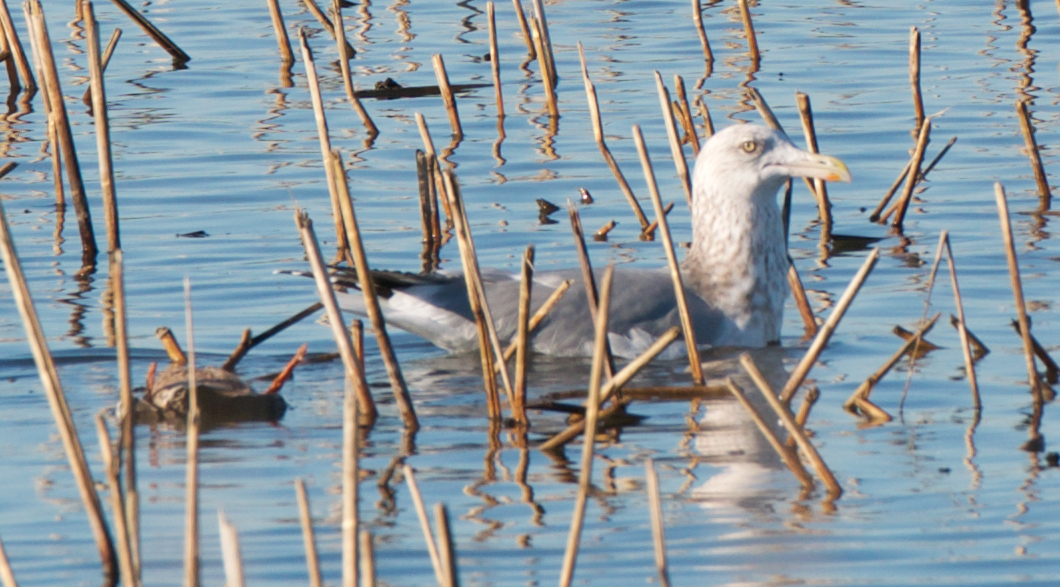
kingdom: Animalia
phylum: Chordata
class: Aves
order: Charadriiformes
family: Laridae
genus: Larus
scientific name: Larus argentatus
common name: Herring gull
